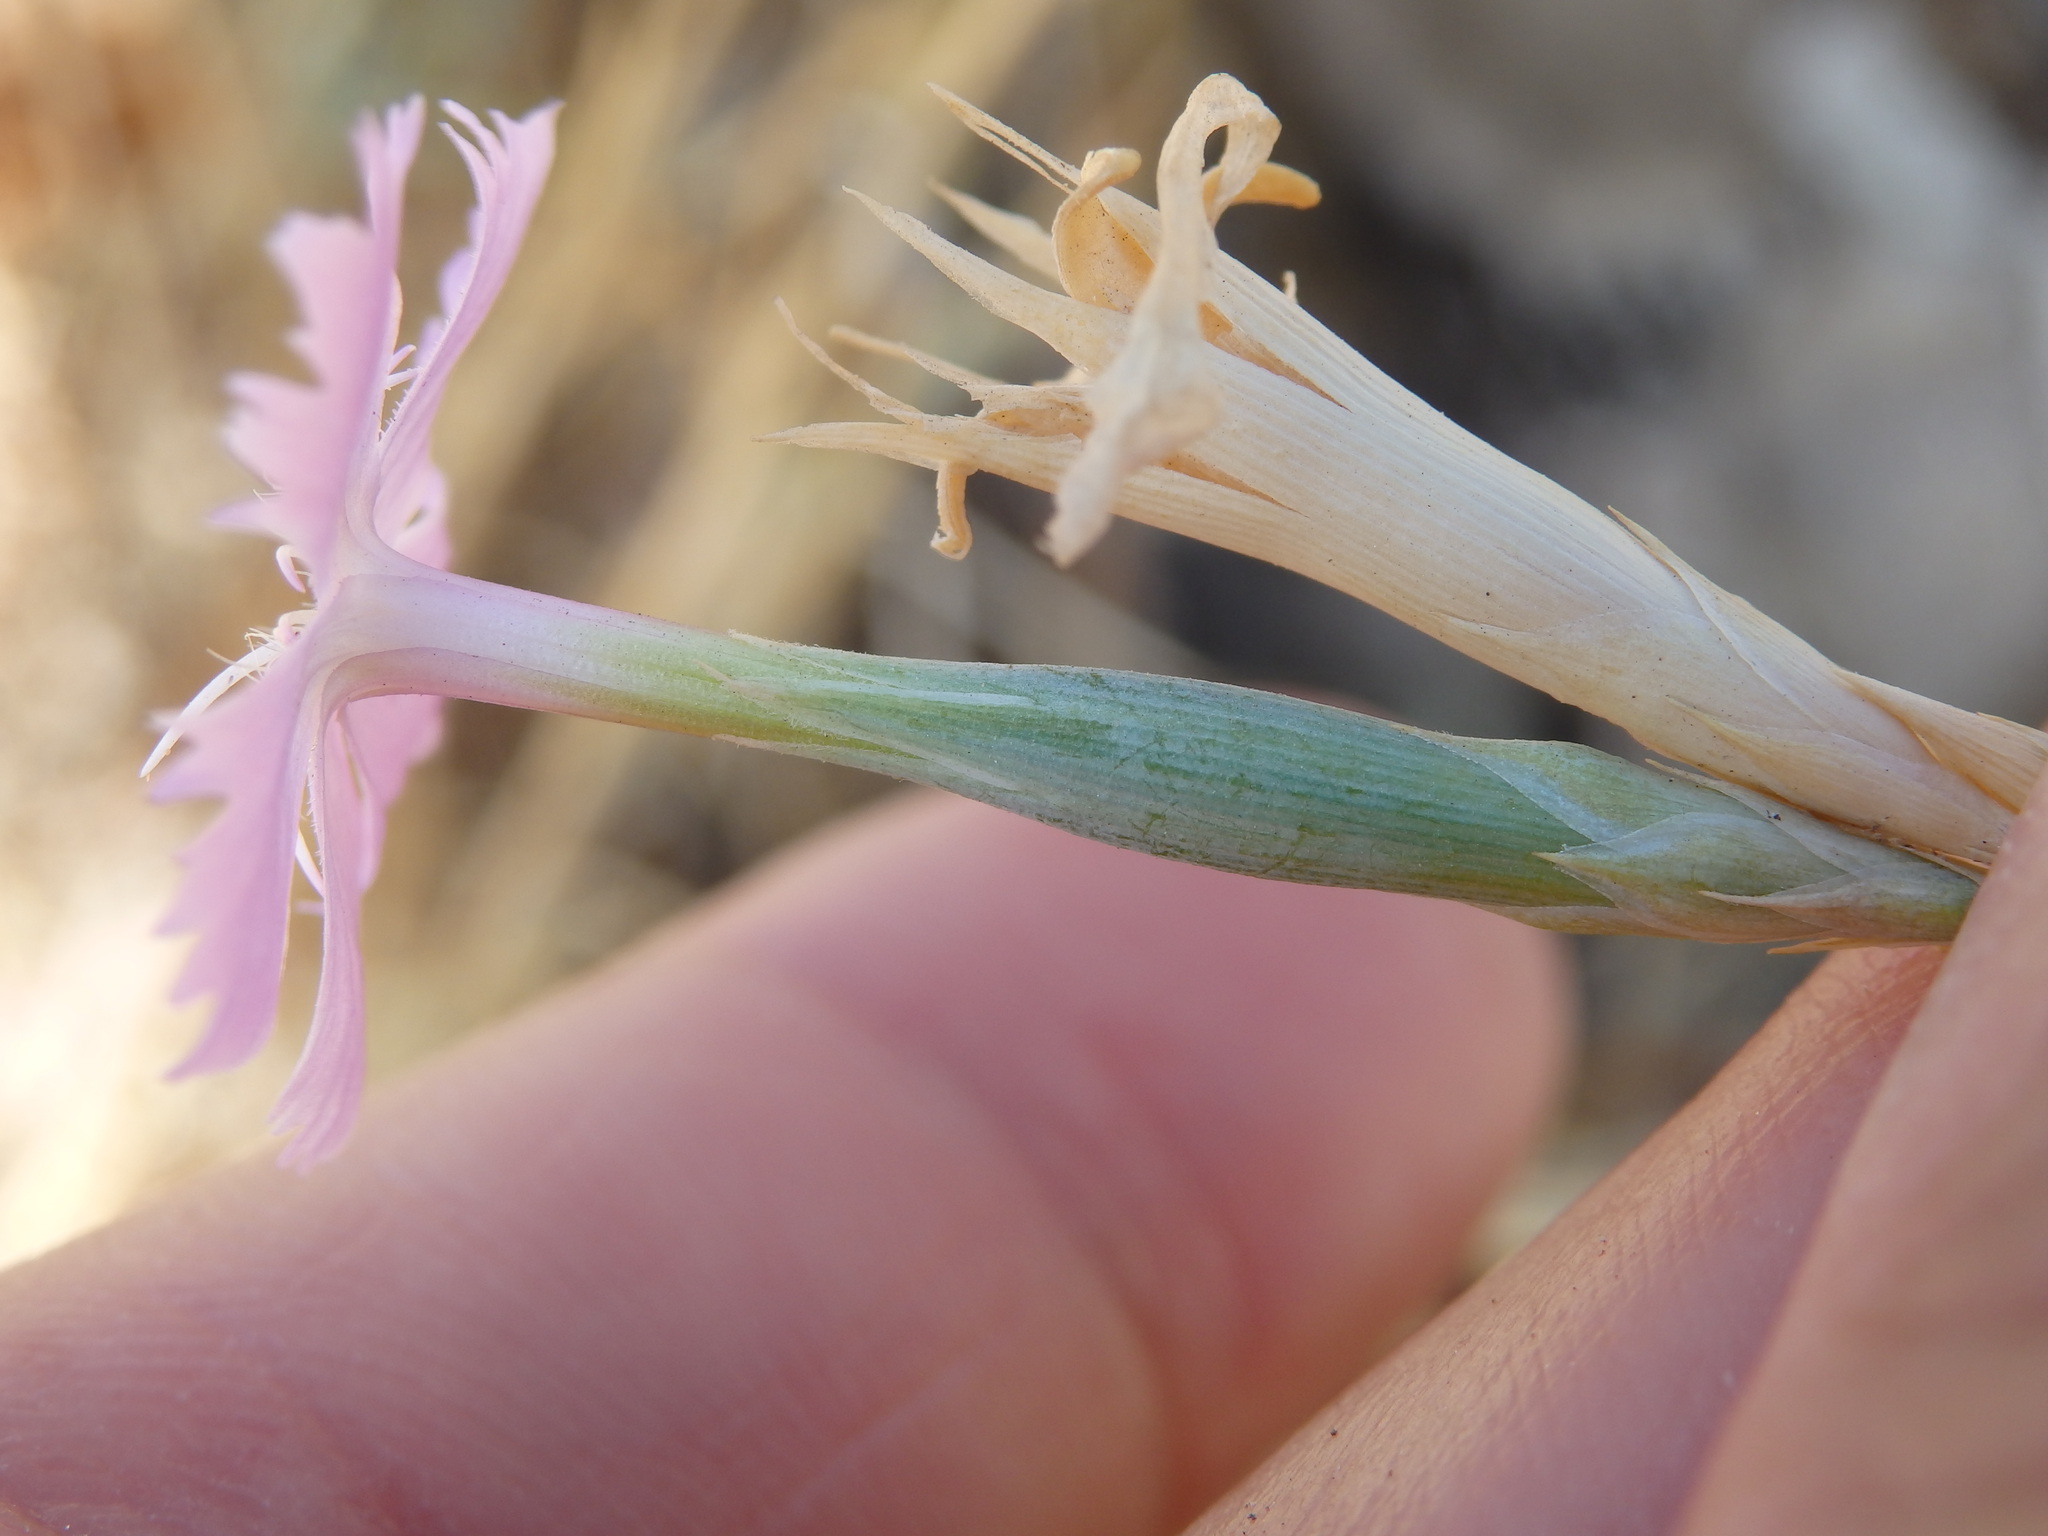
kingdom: Plantae
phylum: Tracheophyta
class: Magnoliopsida
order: Caryophyllales
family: Caryophyllaceae
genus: Dianthus
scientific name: Dianthus lusitanus
